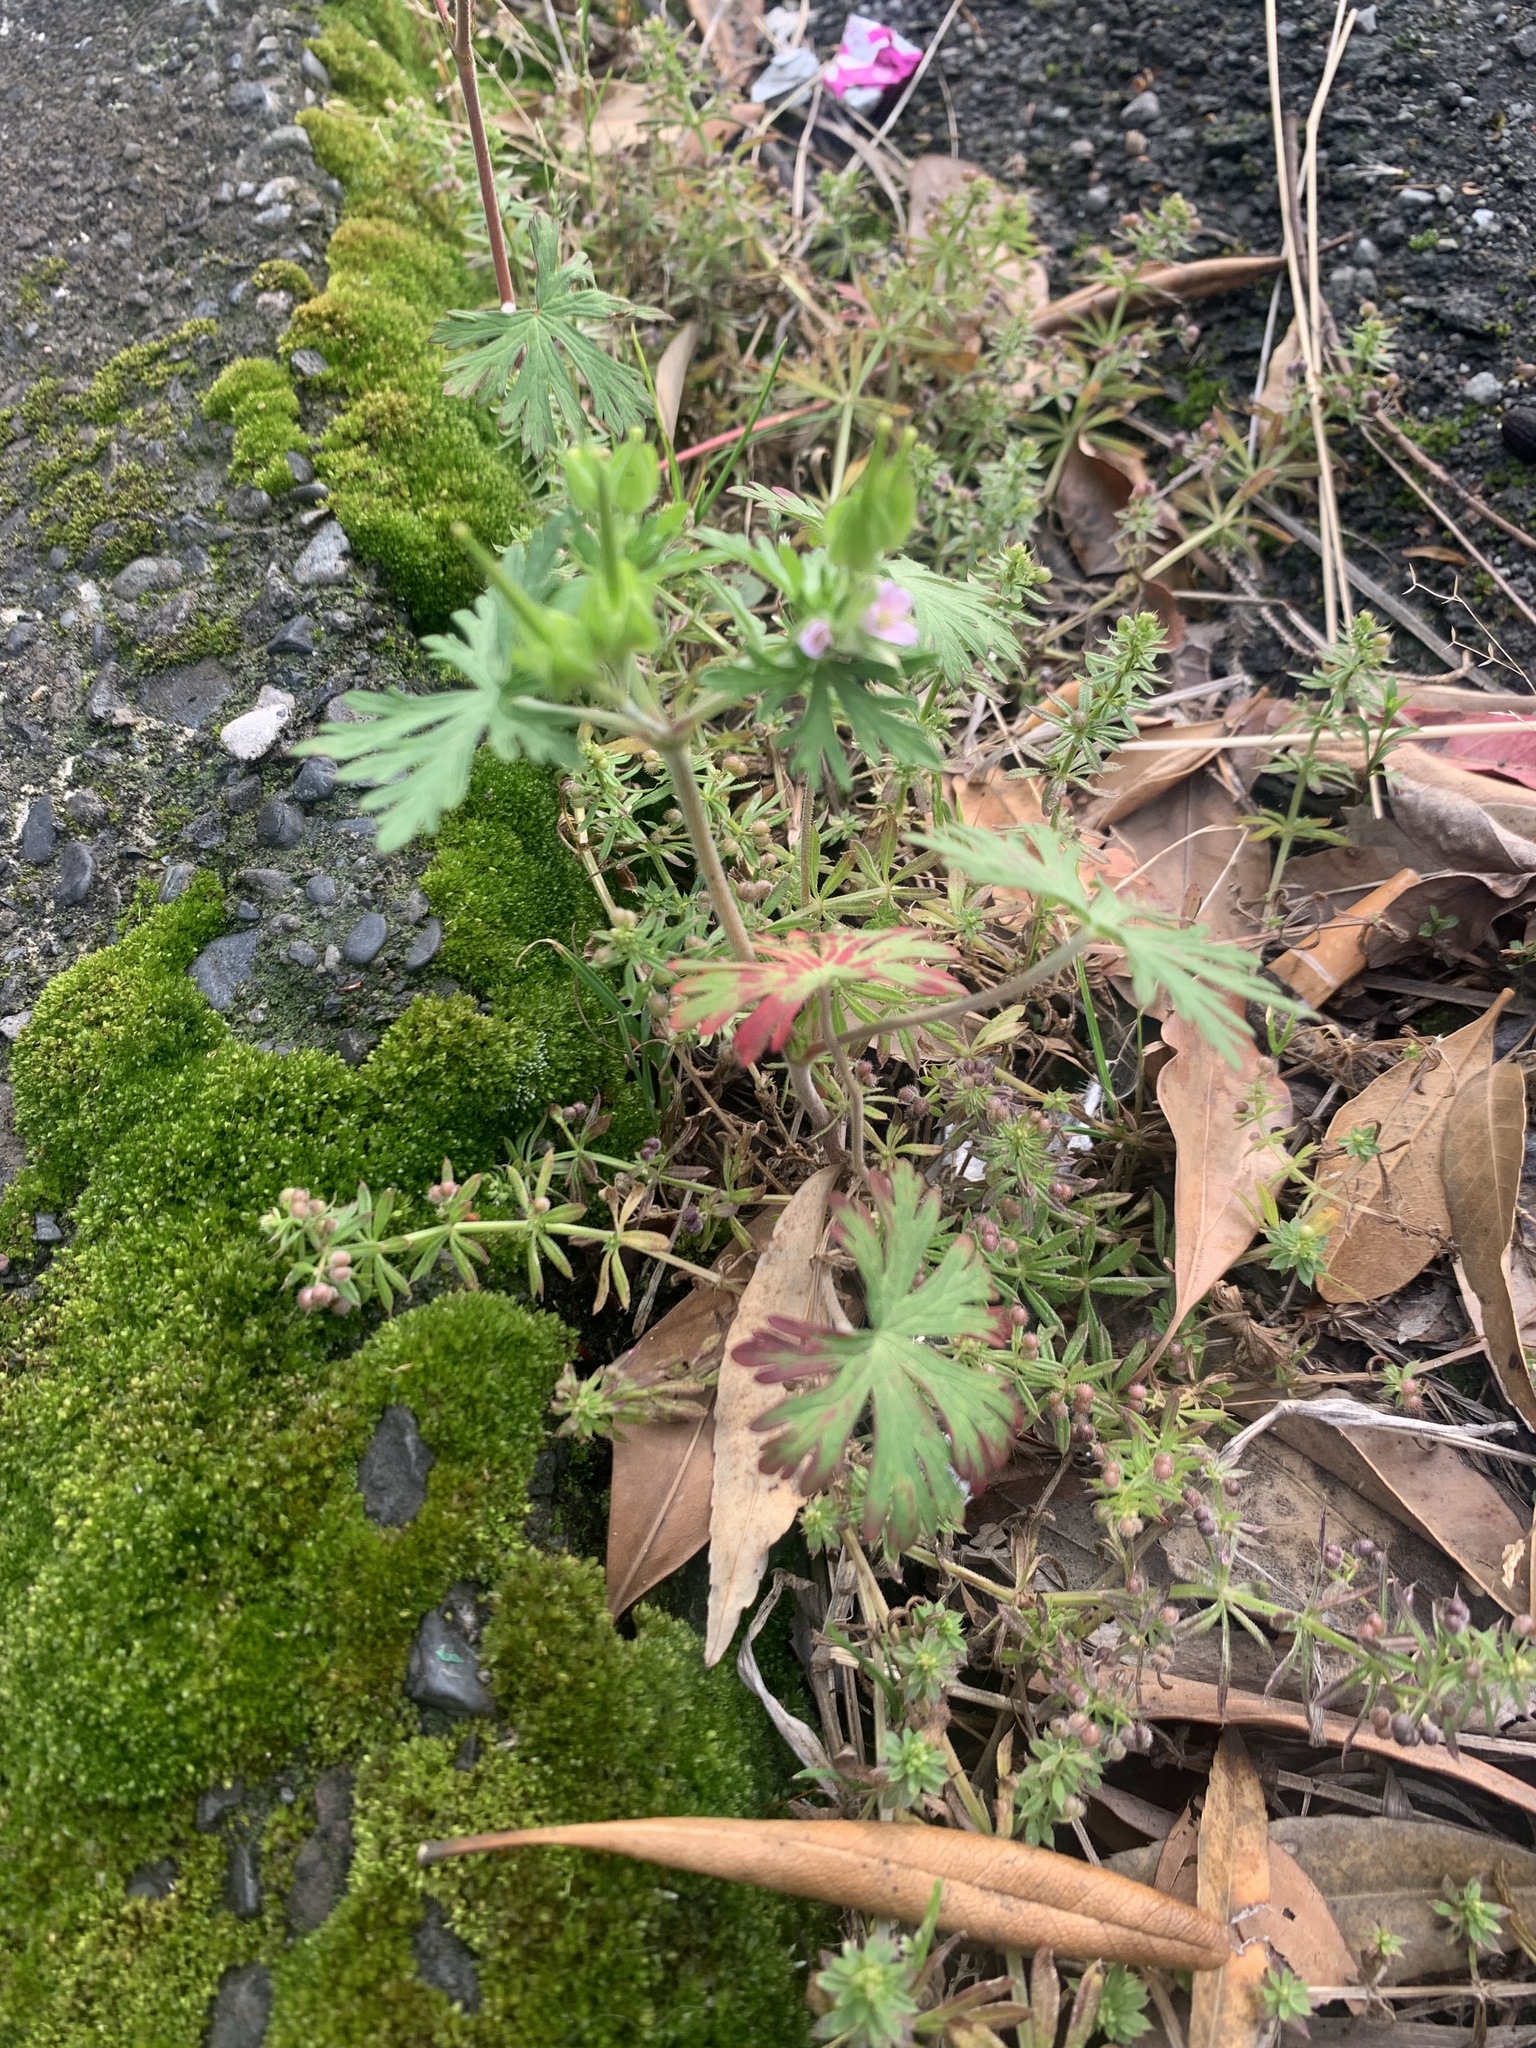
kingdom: Plantae
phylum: Tracheophyta
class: Magnoliopsida
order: Geraniales
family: Geraniaceae
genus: Geranium
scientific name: Geranium carolinianum
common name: Carolina crane's-bill
